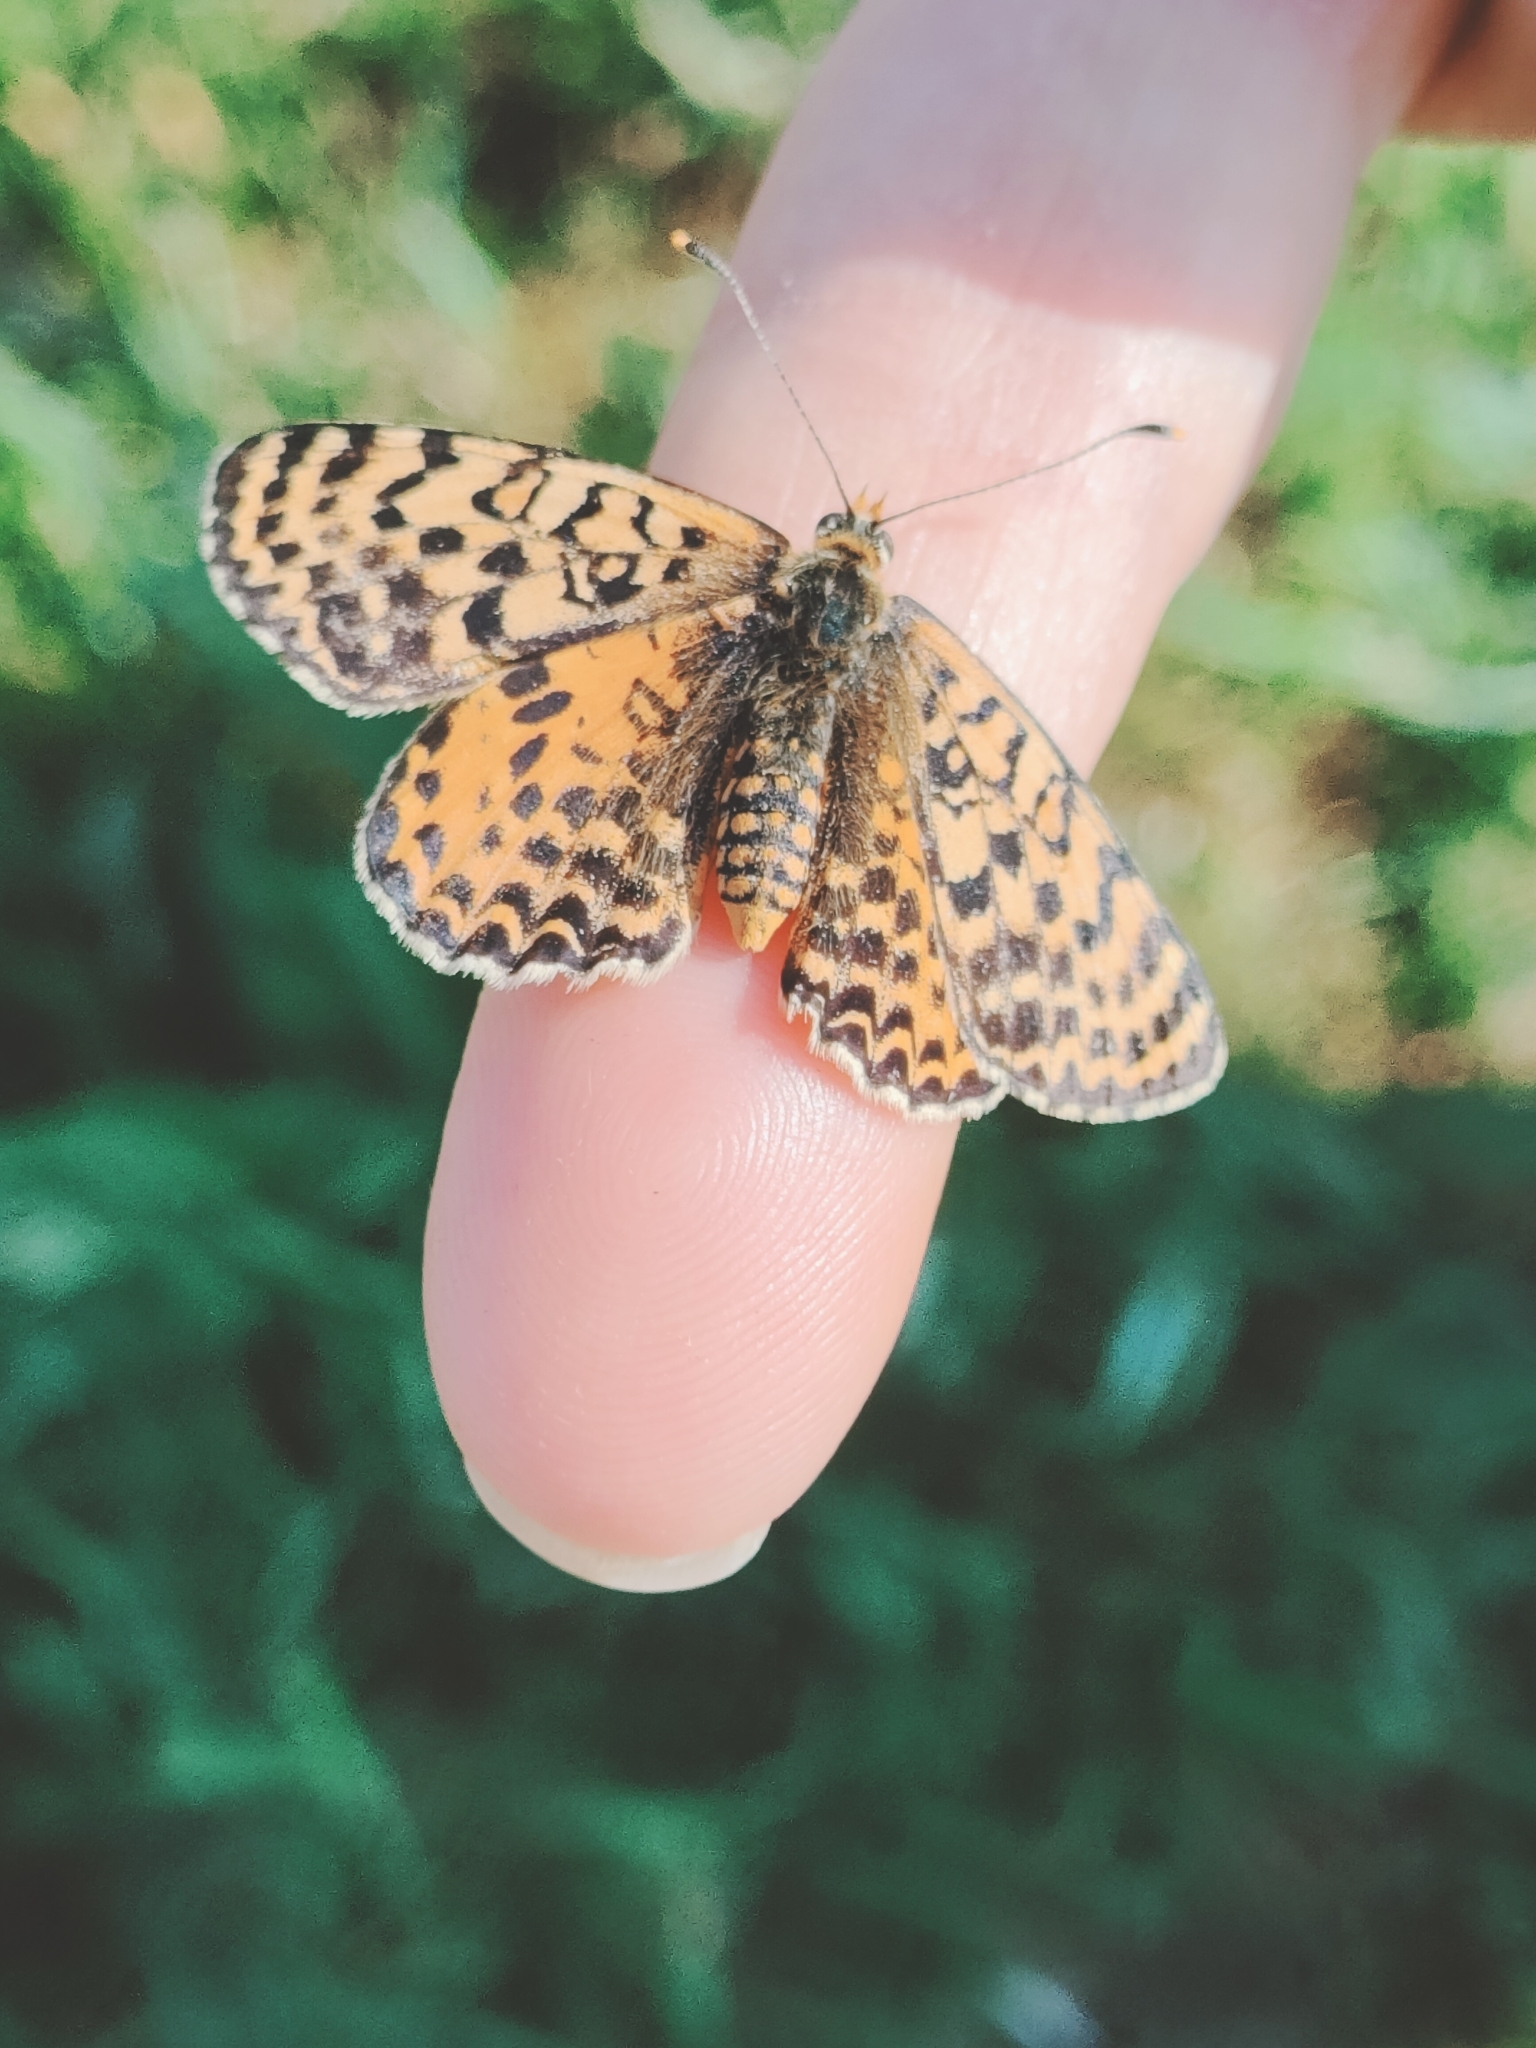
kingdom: Animalia
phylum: Arthropoda
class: Insecta
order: Lepidoptera
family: Nymphalidae
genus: Melitaea
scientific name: Melitaea didyma
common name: Spotted fritillary
